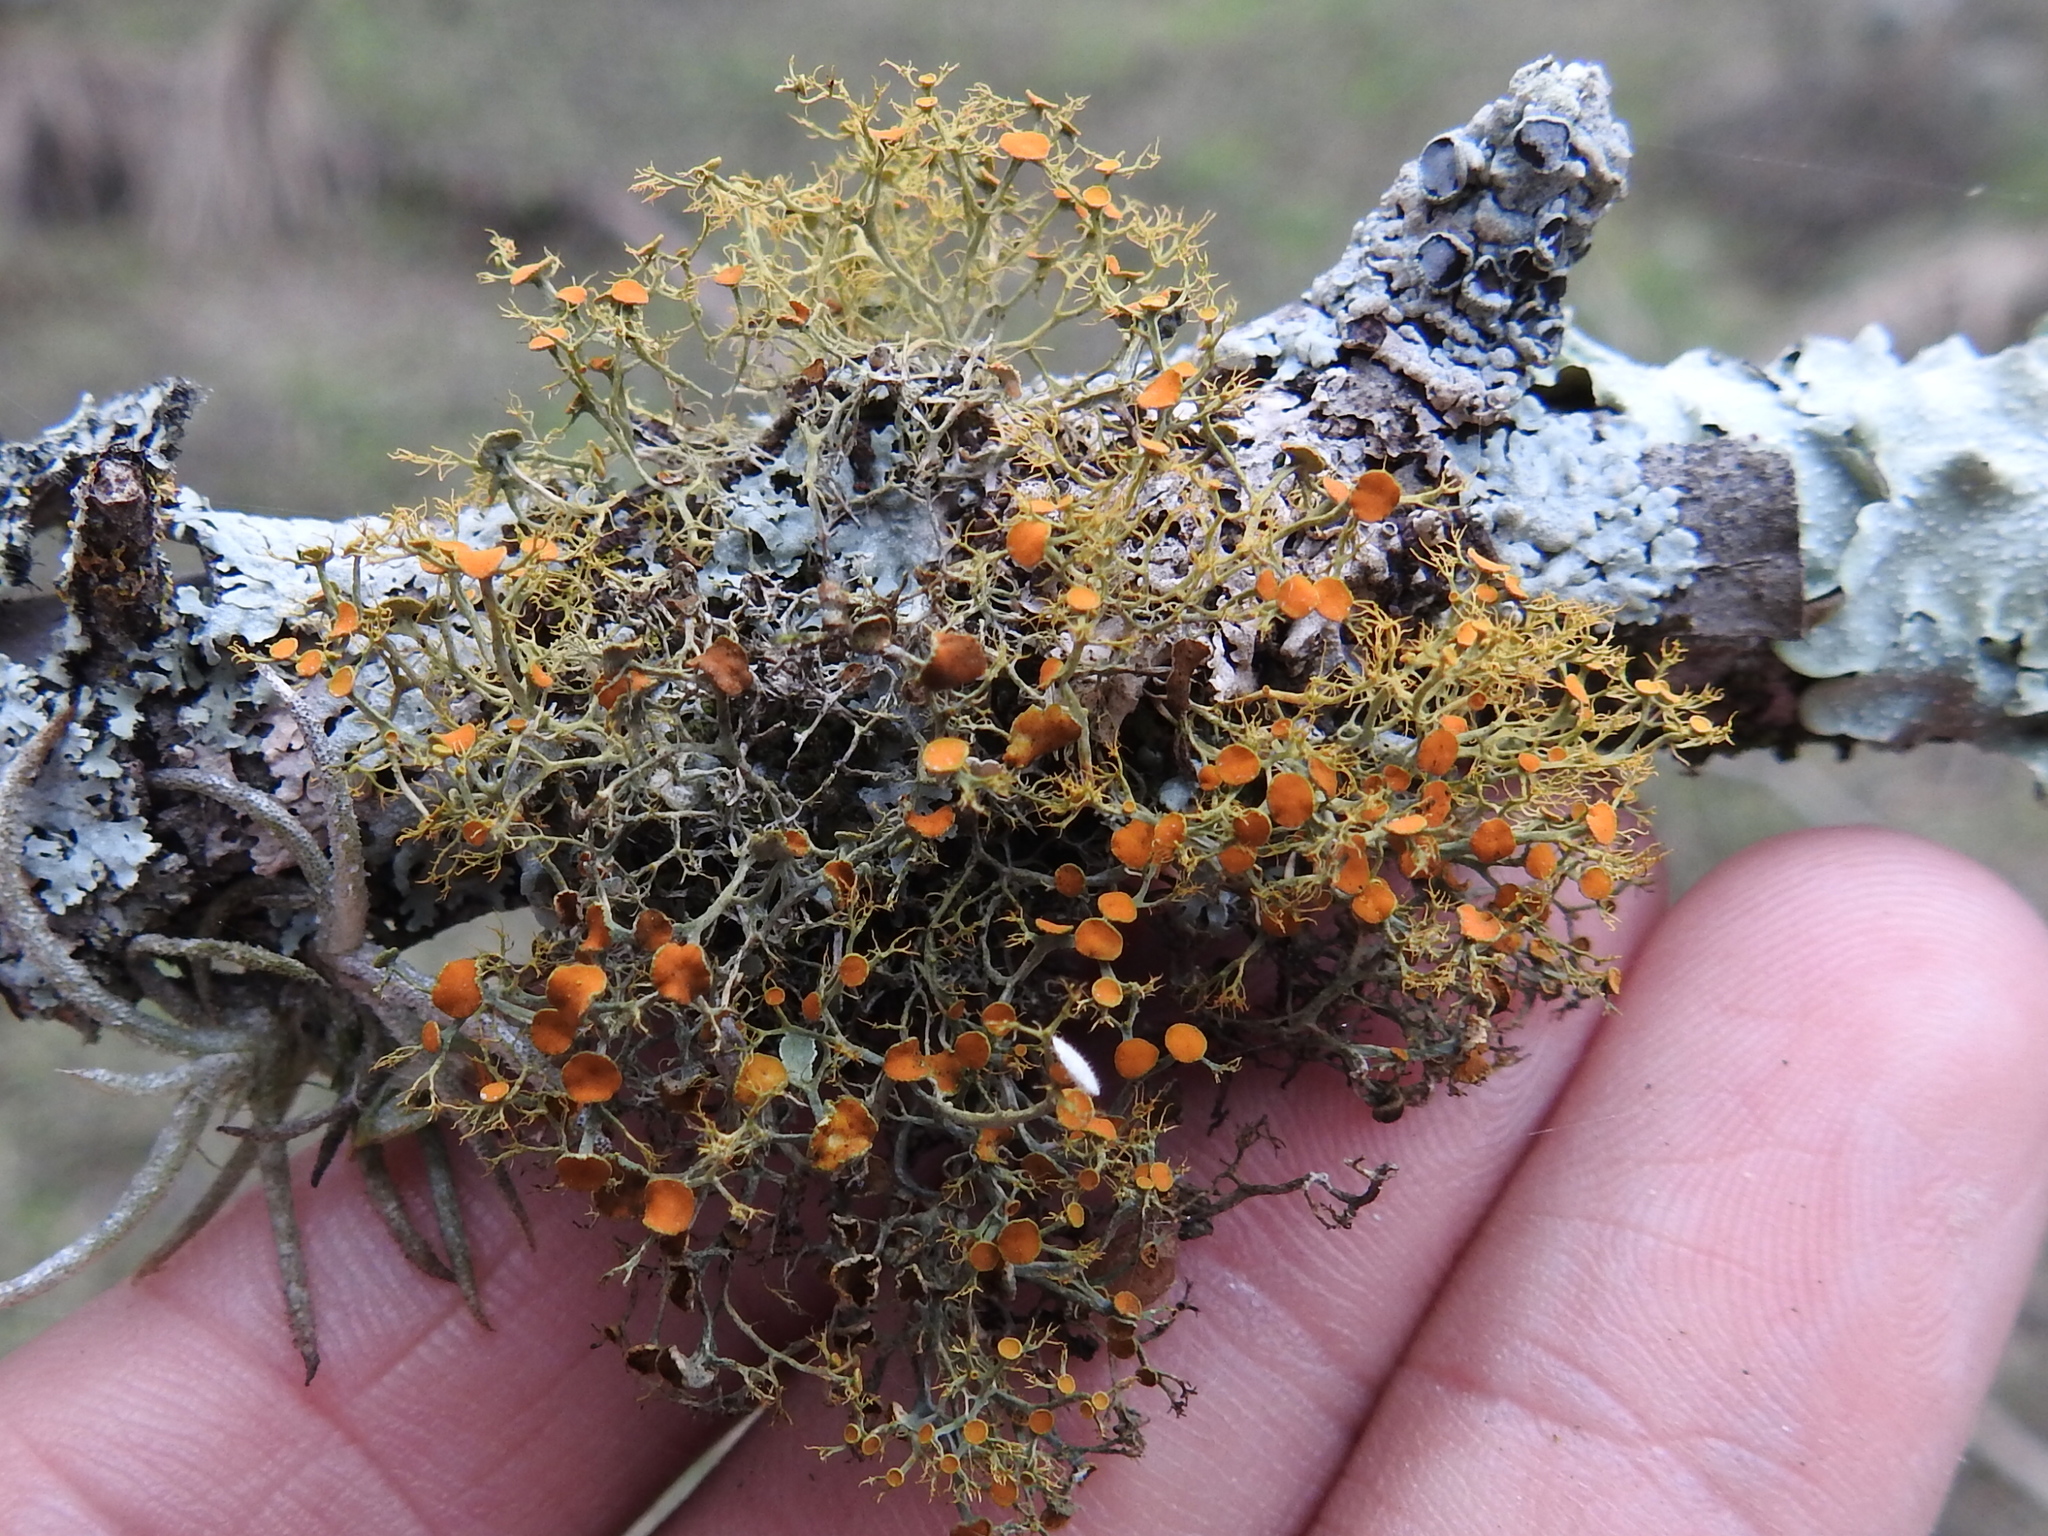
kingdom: Fungi
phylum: Ascomycota
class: Lecanoromycetes
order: Teloschistales
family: Teloschistaceae
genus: Teloschistes
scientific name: Teloschistes exilis
